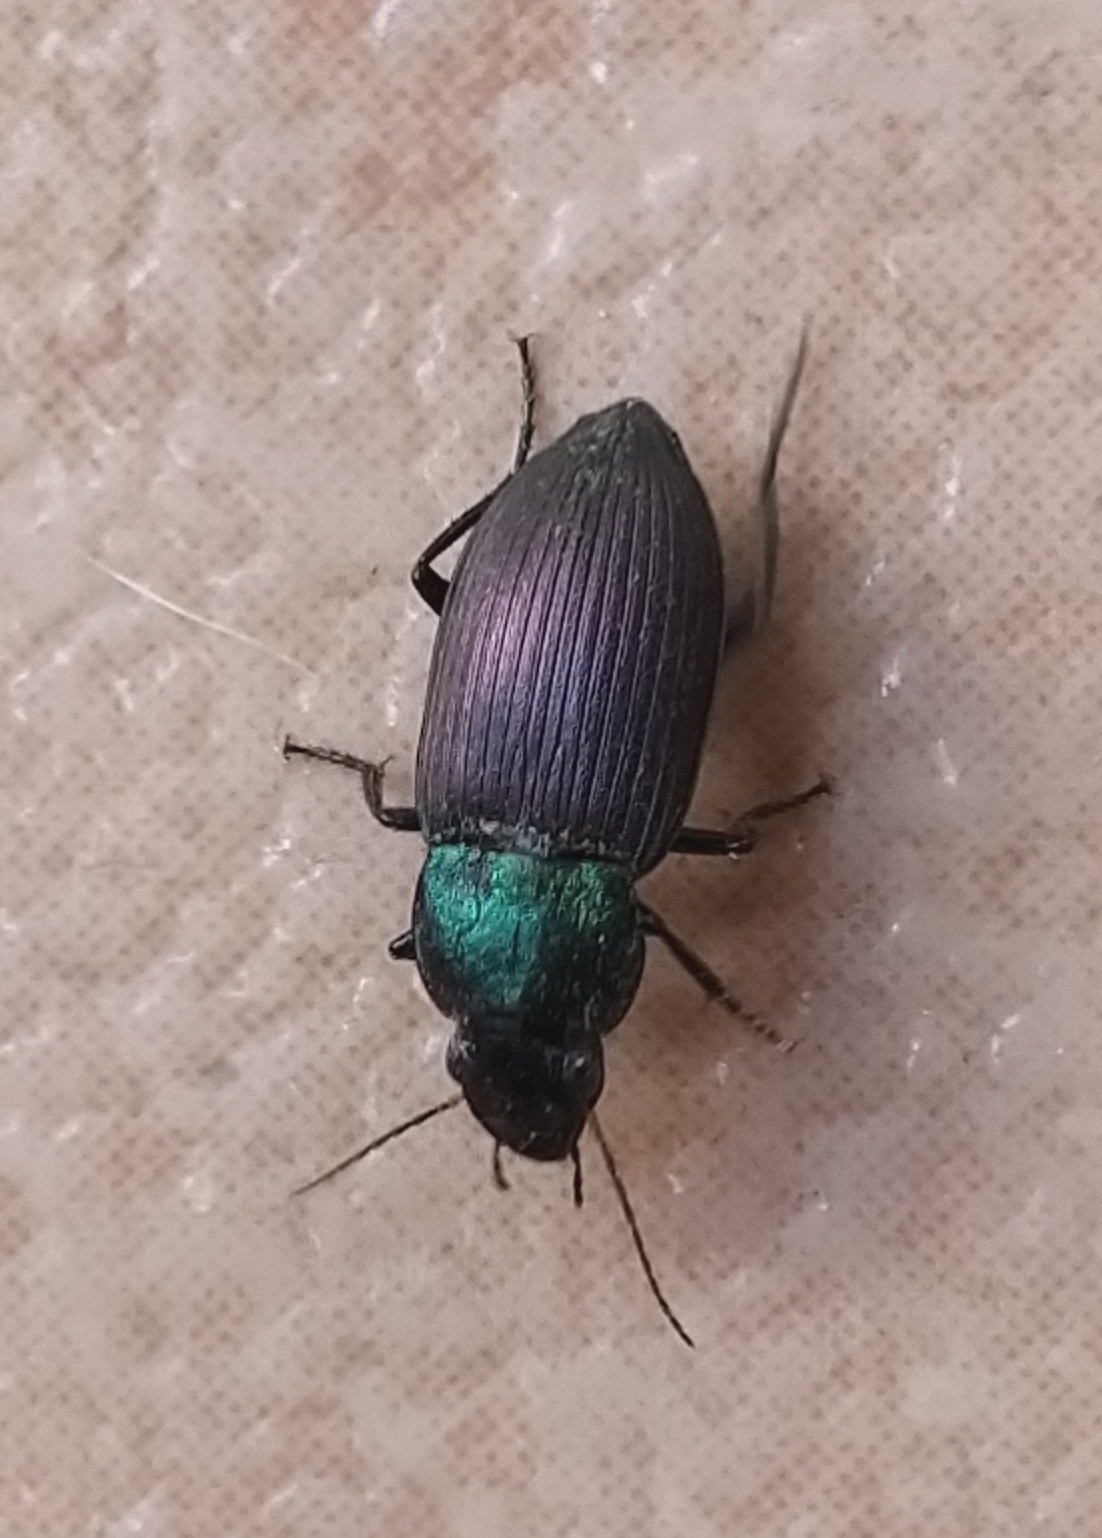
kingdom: Animalia
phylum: Arthropoda
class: Insecta
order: Coleoptera
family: Carabidae
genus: Neoaulacoryssus
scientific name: Neoaulacoryssus speciosus
